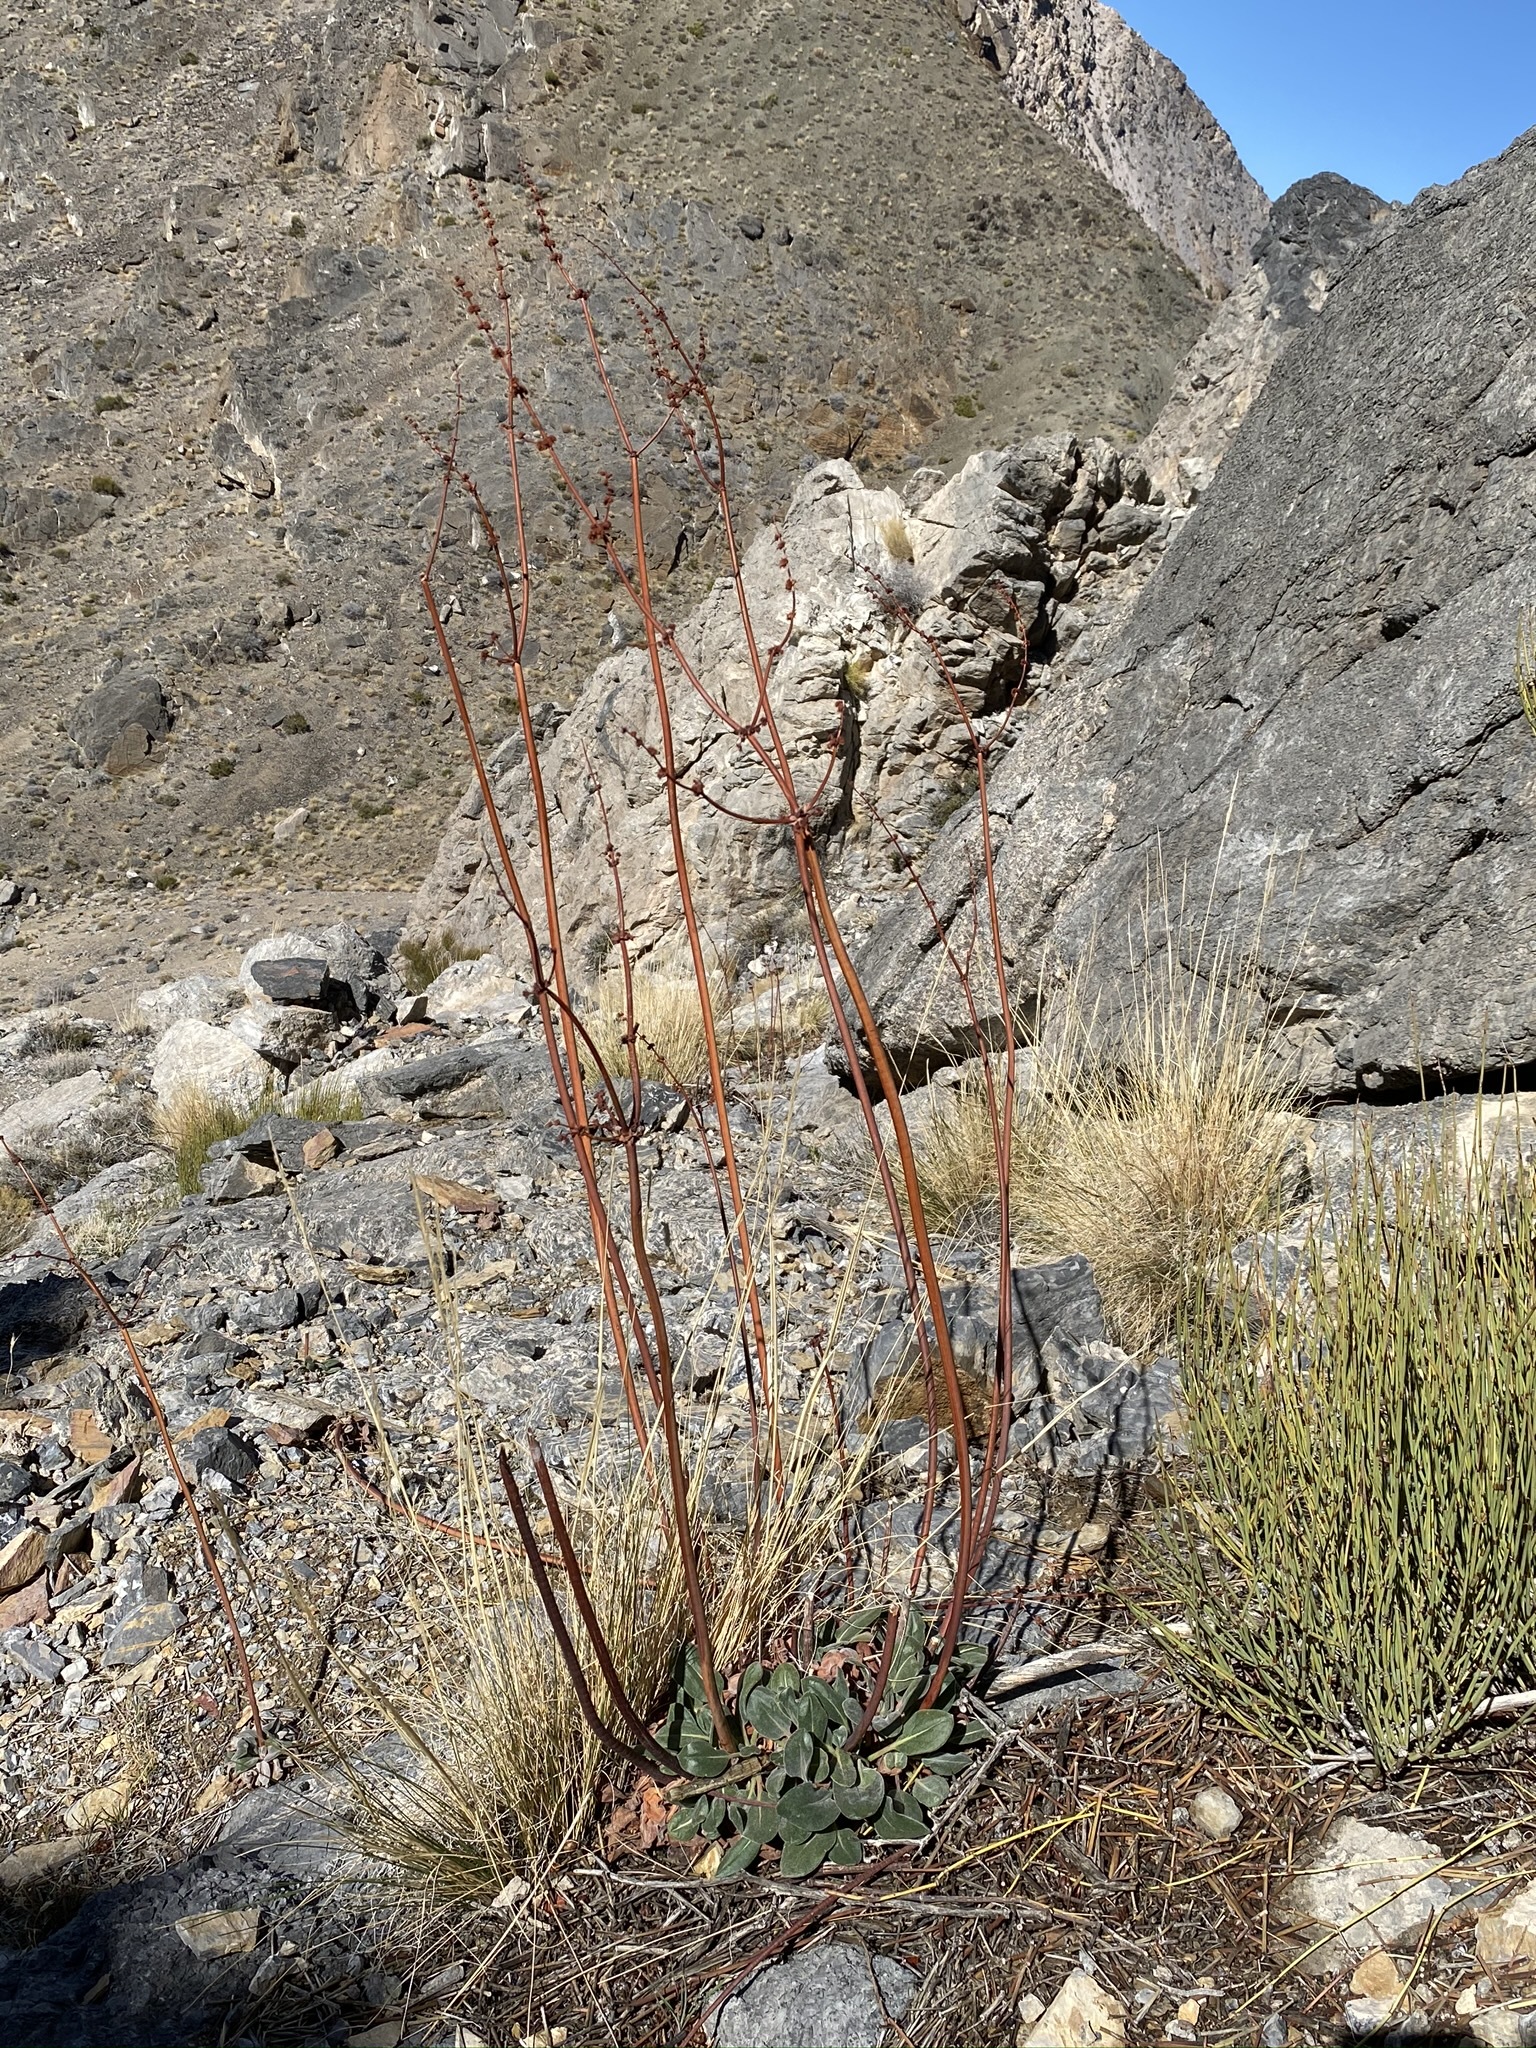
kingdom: Plantae
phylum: Tracheophyta
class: Magnoliopsida
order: Caryophyllales
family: Polygonaceae
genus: Eriogonum
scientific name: Eriogonum intrafractum
